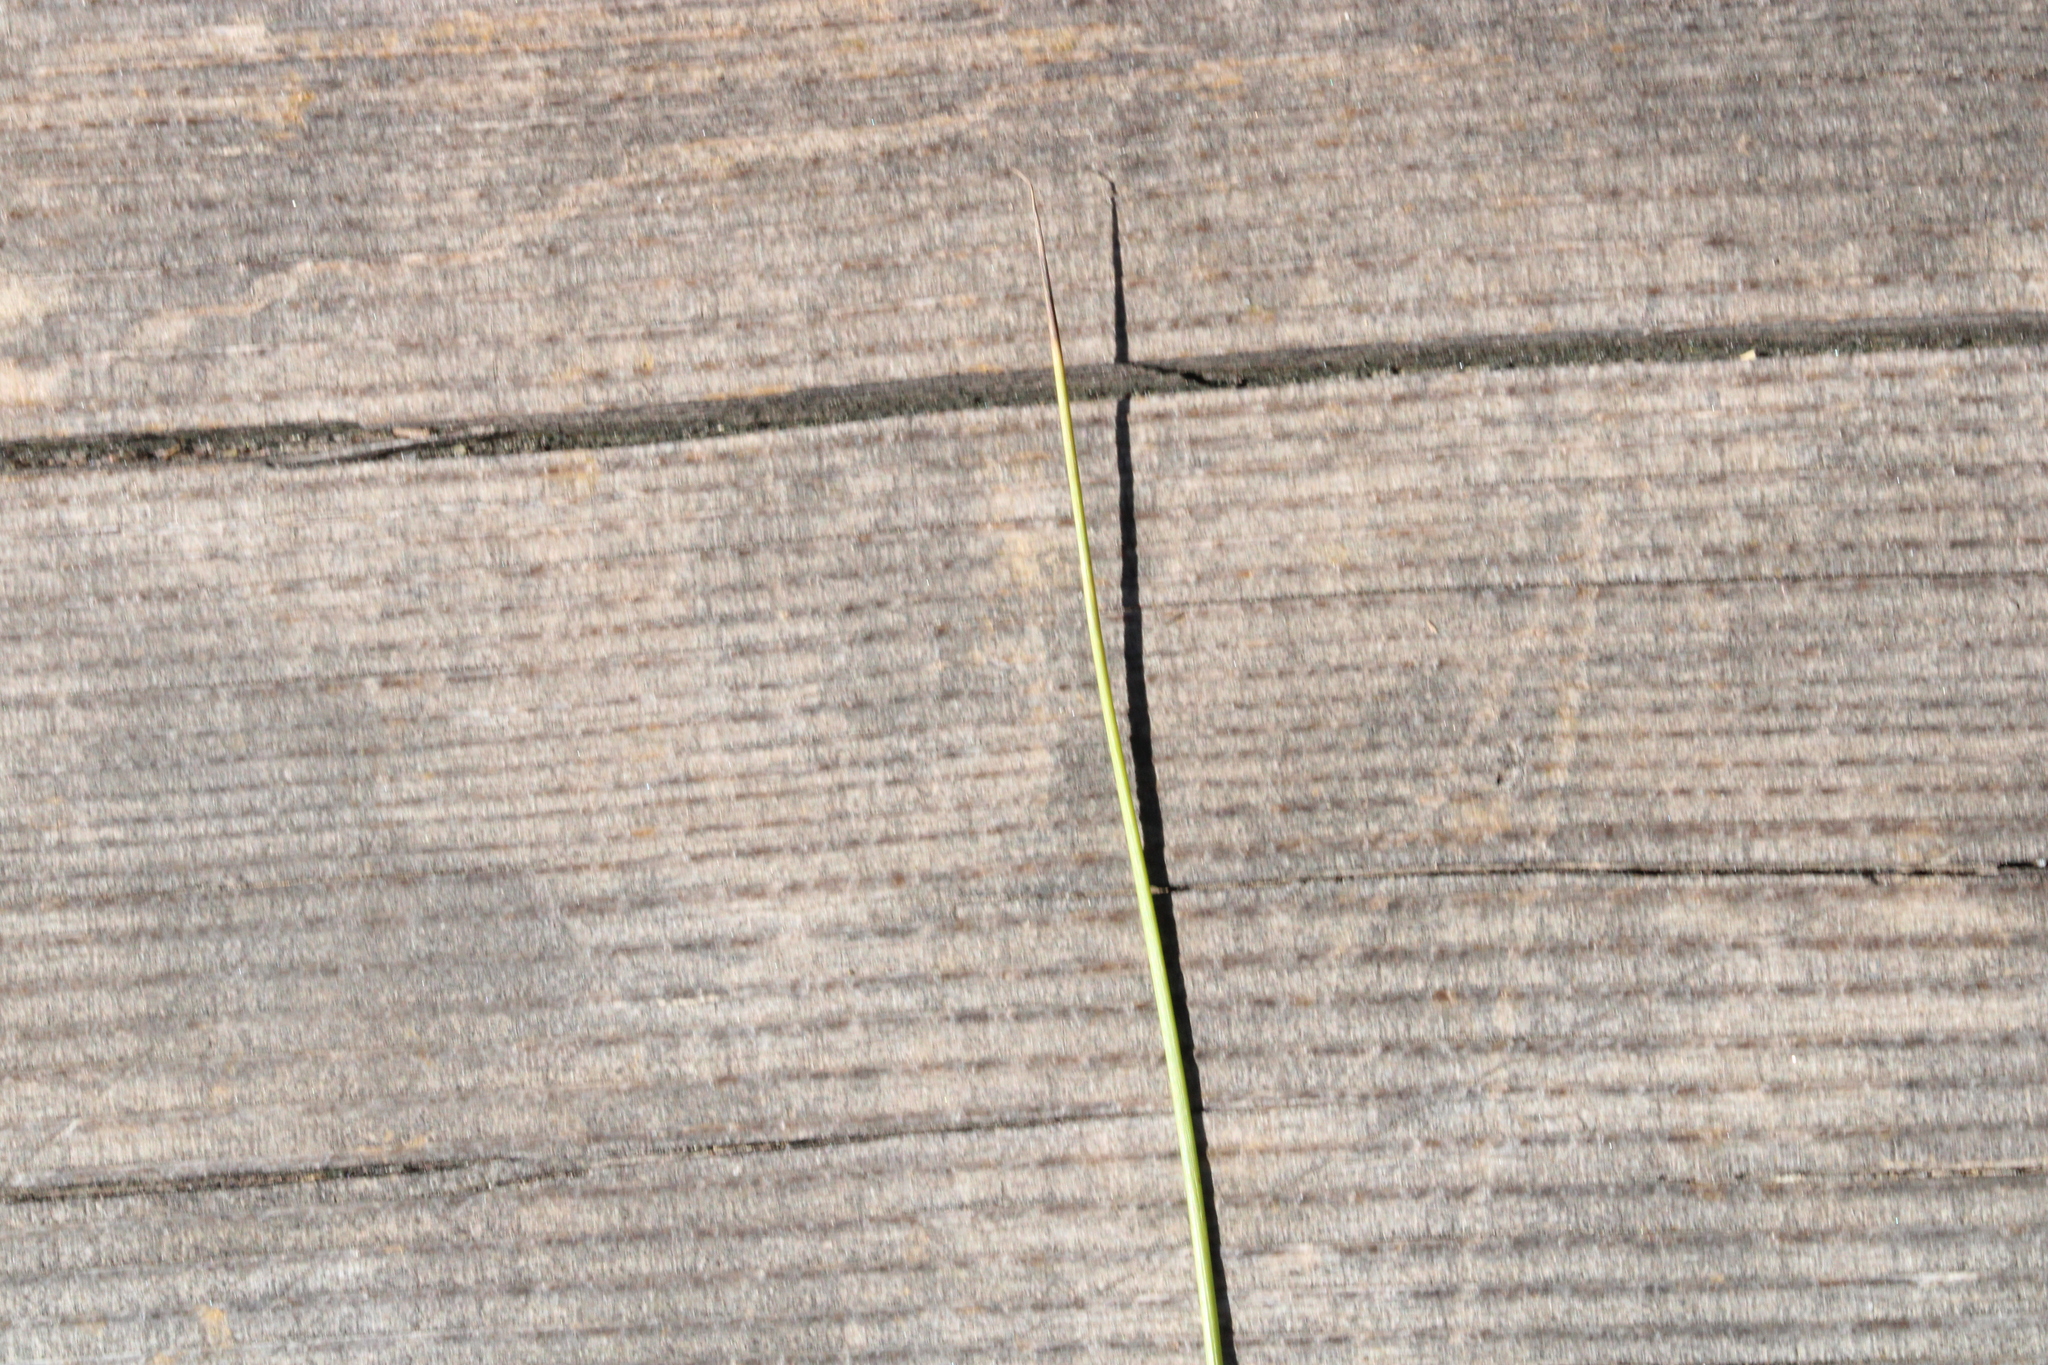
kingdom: Plantae
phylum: Tracheophyta
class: Liliopsida
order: Poales
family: Juncaceae
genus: Juncus
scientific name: Juncus filiformis
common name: Thread rush
